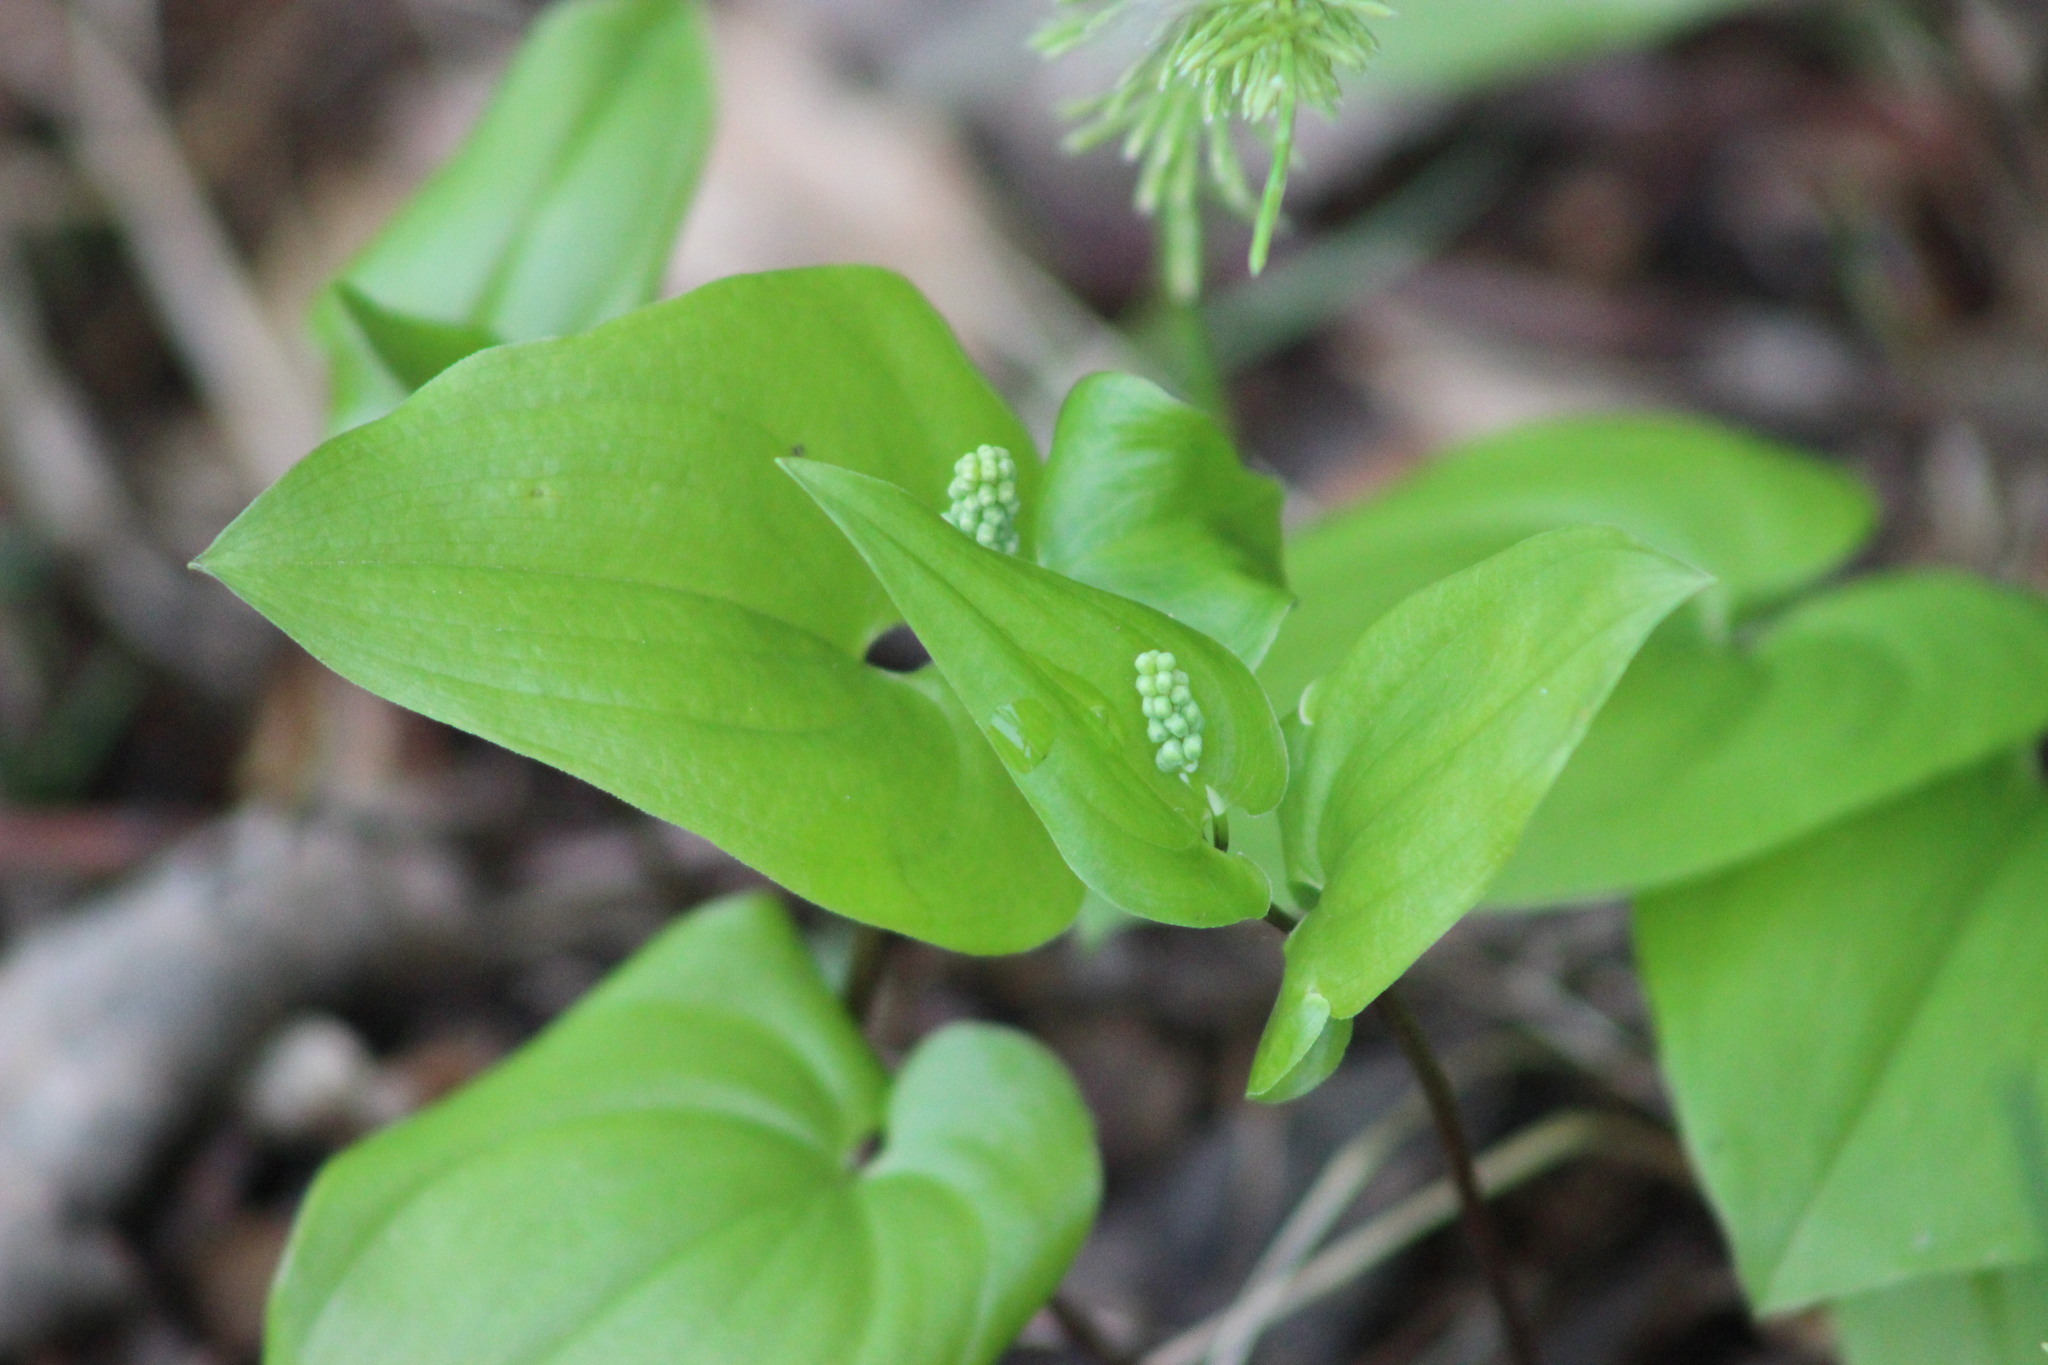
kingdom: Plantae
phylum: Tracheophyta
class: Liliopsida
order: Asparagales
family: Asparagaceae
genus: Maianthemum
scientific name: Maianthemum bifolium
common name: May lily
